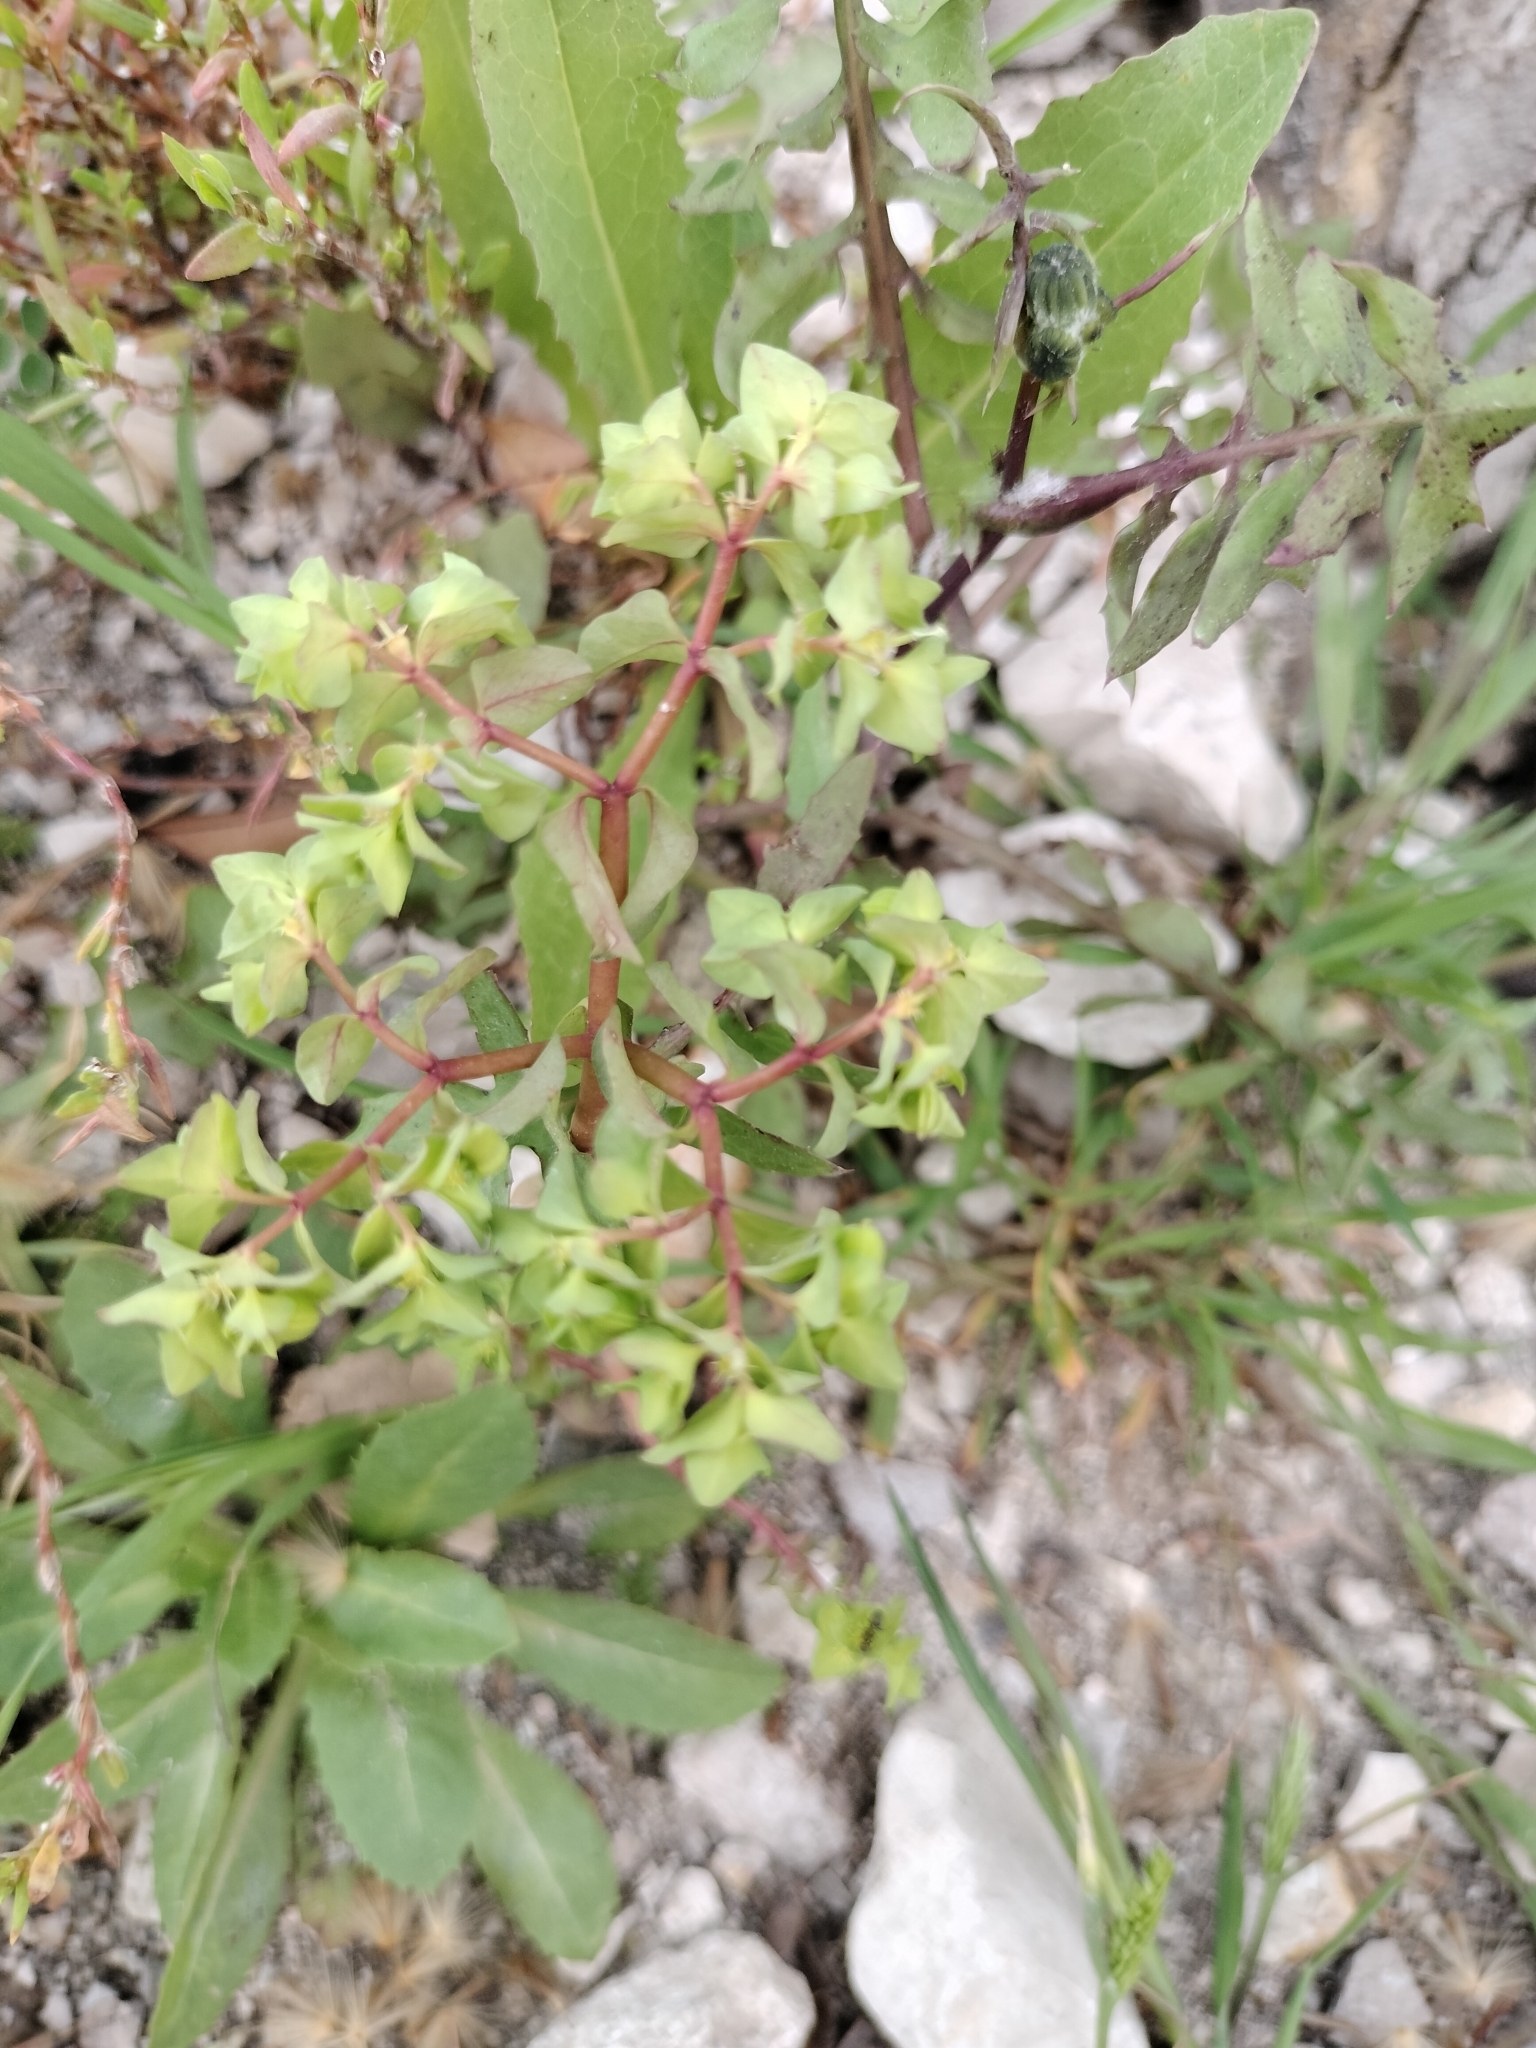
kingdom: Plantae
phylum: Tracheophyta
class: Magnoliopsida
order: Malpighiales
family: Euphorbiaceae
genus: Euphorbia
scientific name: Euphorbia peplus
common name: Petty spurge
